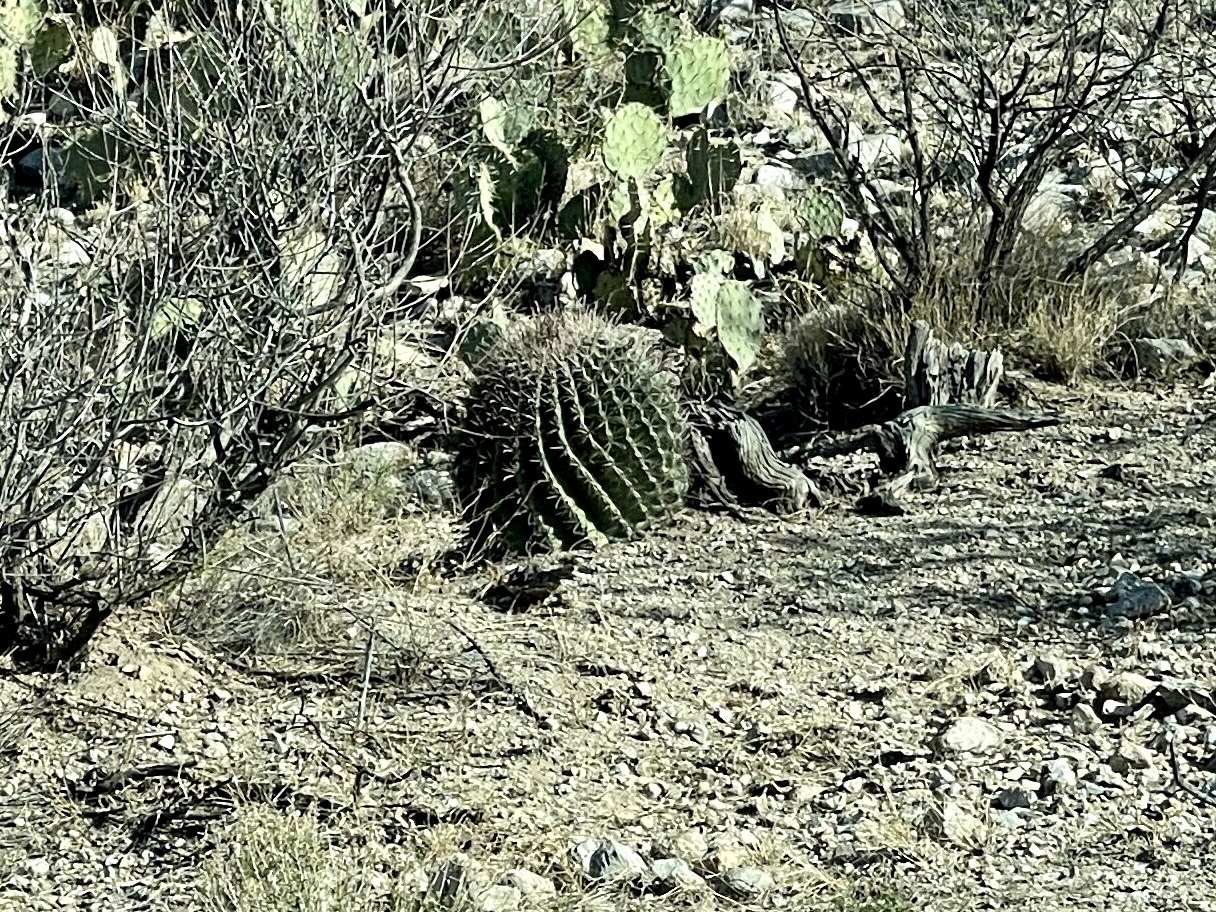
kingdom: Plantae
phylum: Tracheophyta
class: Magnoliopsida
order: Caryophyllales
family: Cactaceae
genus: Ferocactus
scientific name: Ferocactus wislizeni
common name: Candy barrel cactus
